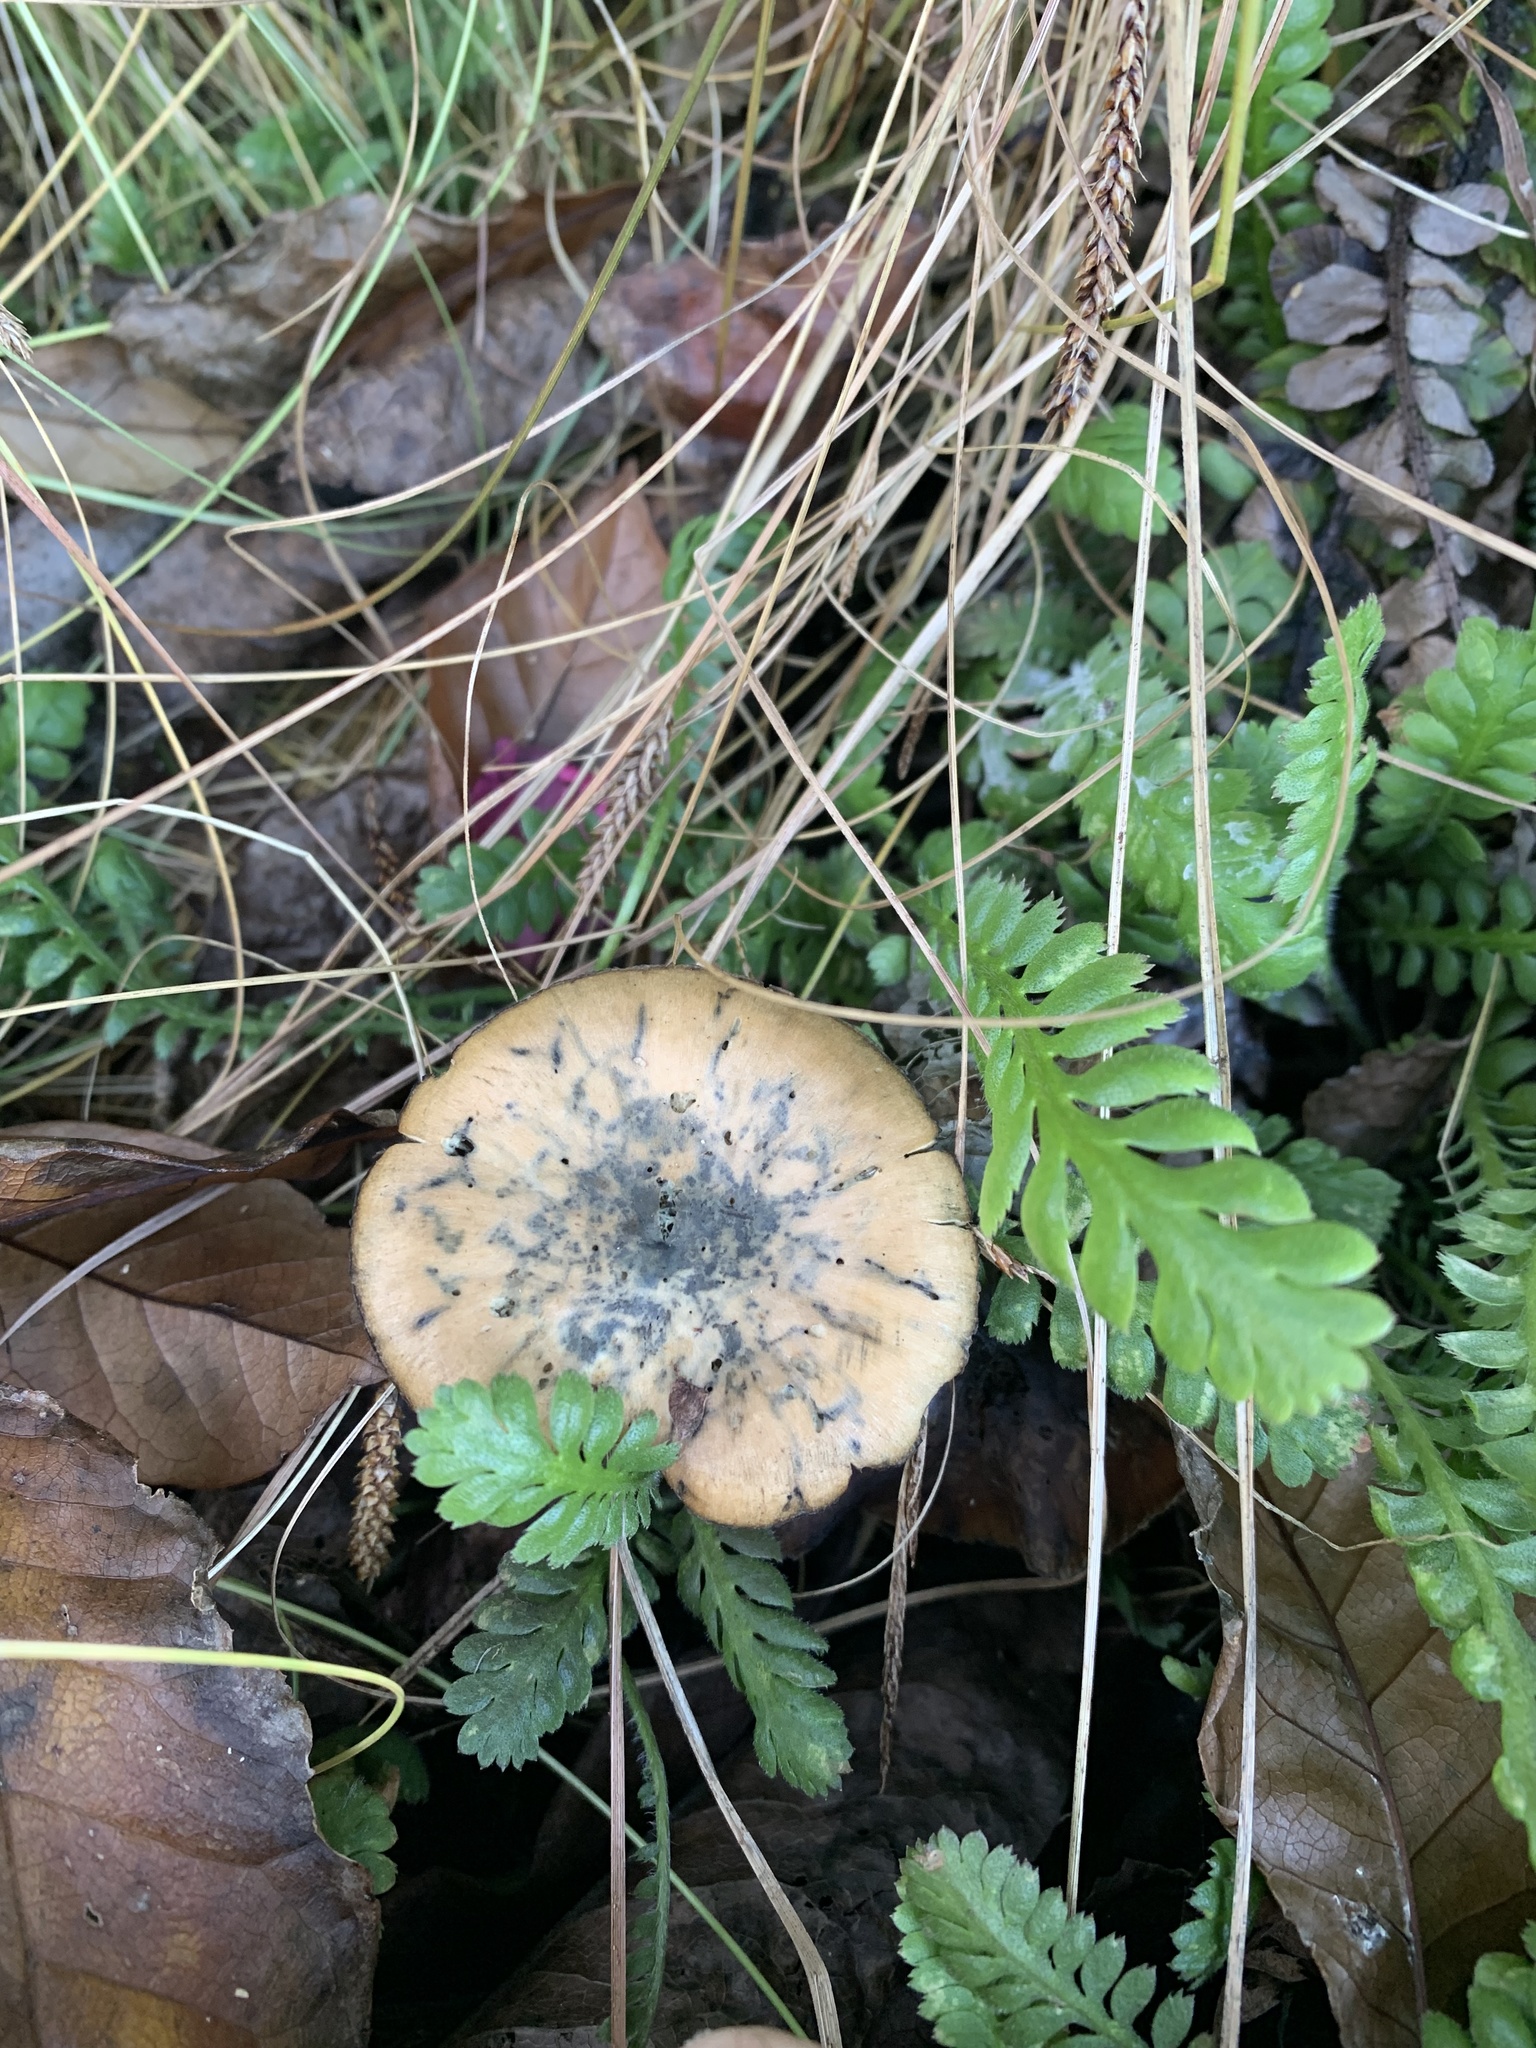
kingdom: Fungi
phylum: Basidiomycota
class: Agaricomycetes
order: Agaricales
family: Hymenogastraceae
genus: Psilocybe
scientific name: Psilocybe subaeruginosa
